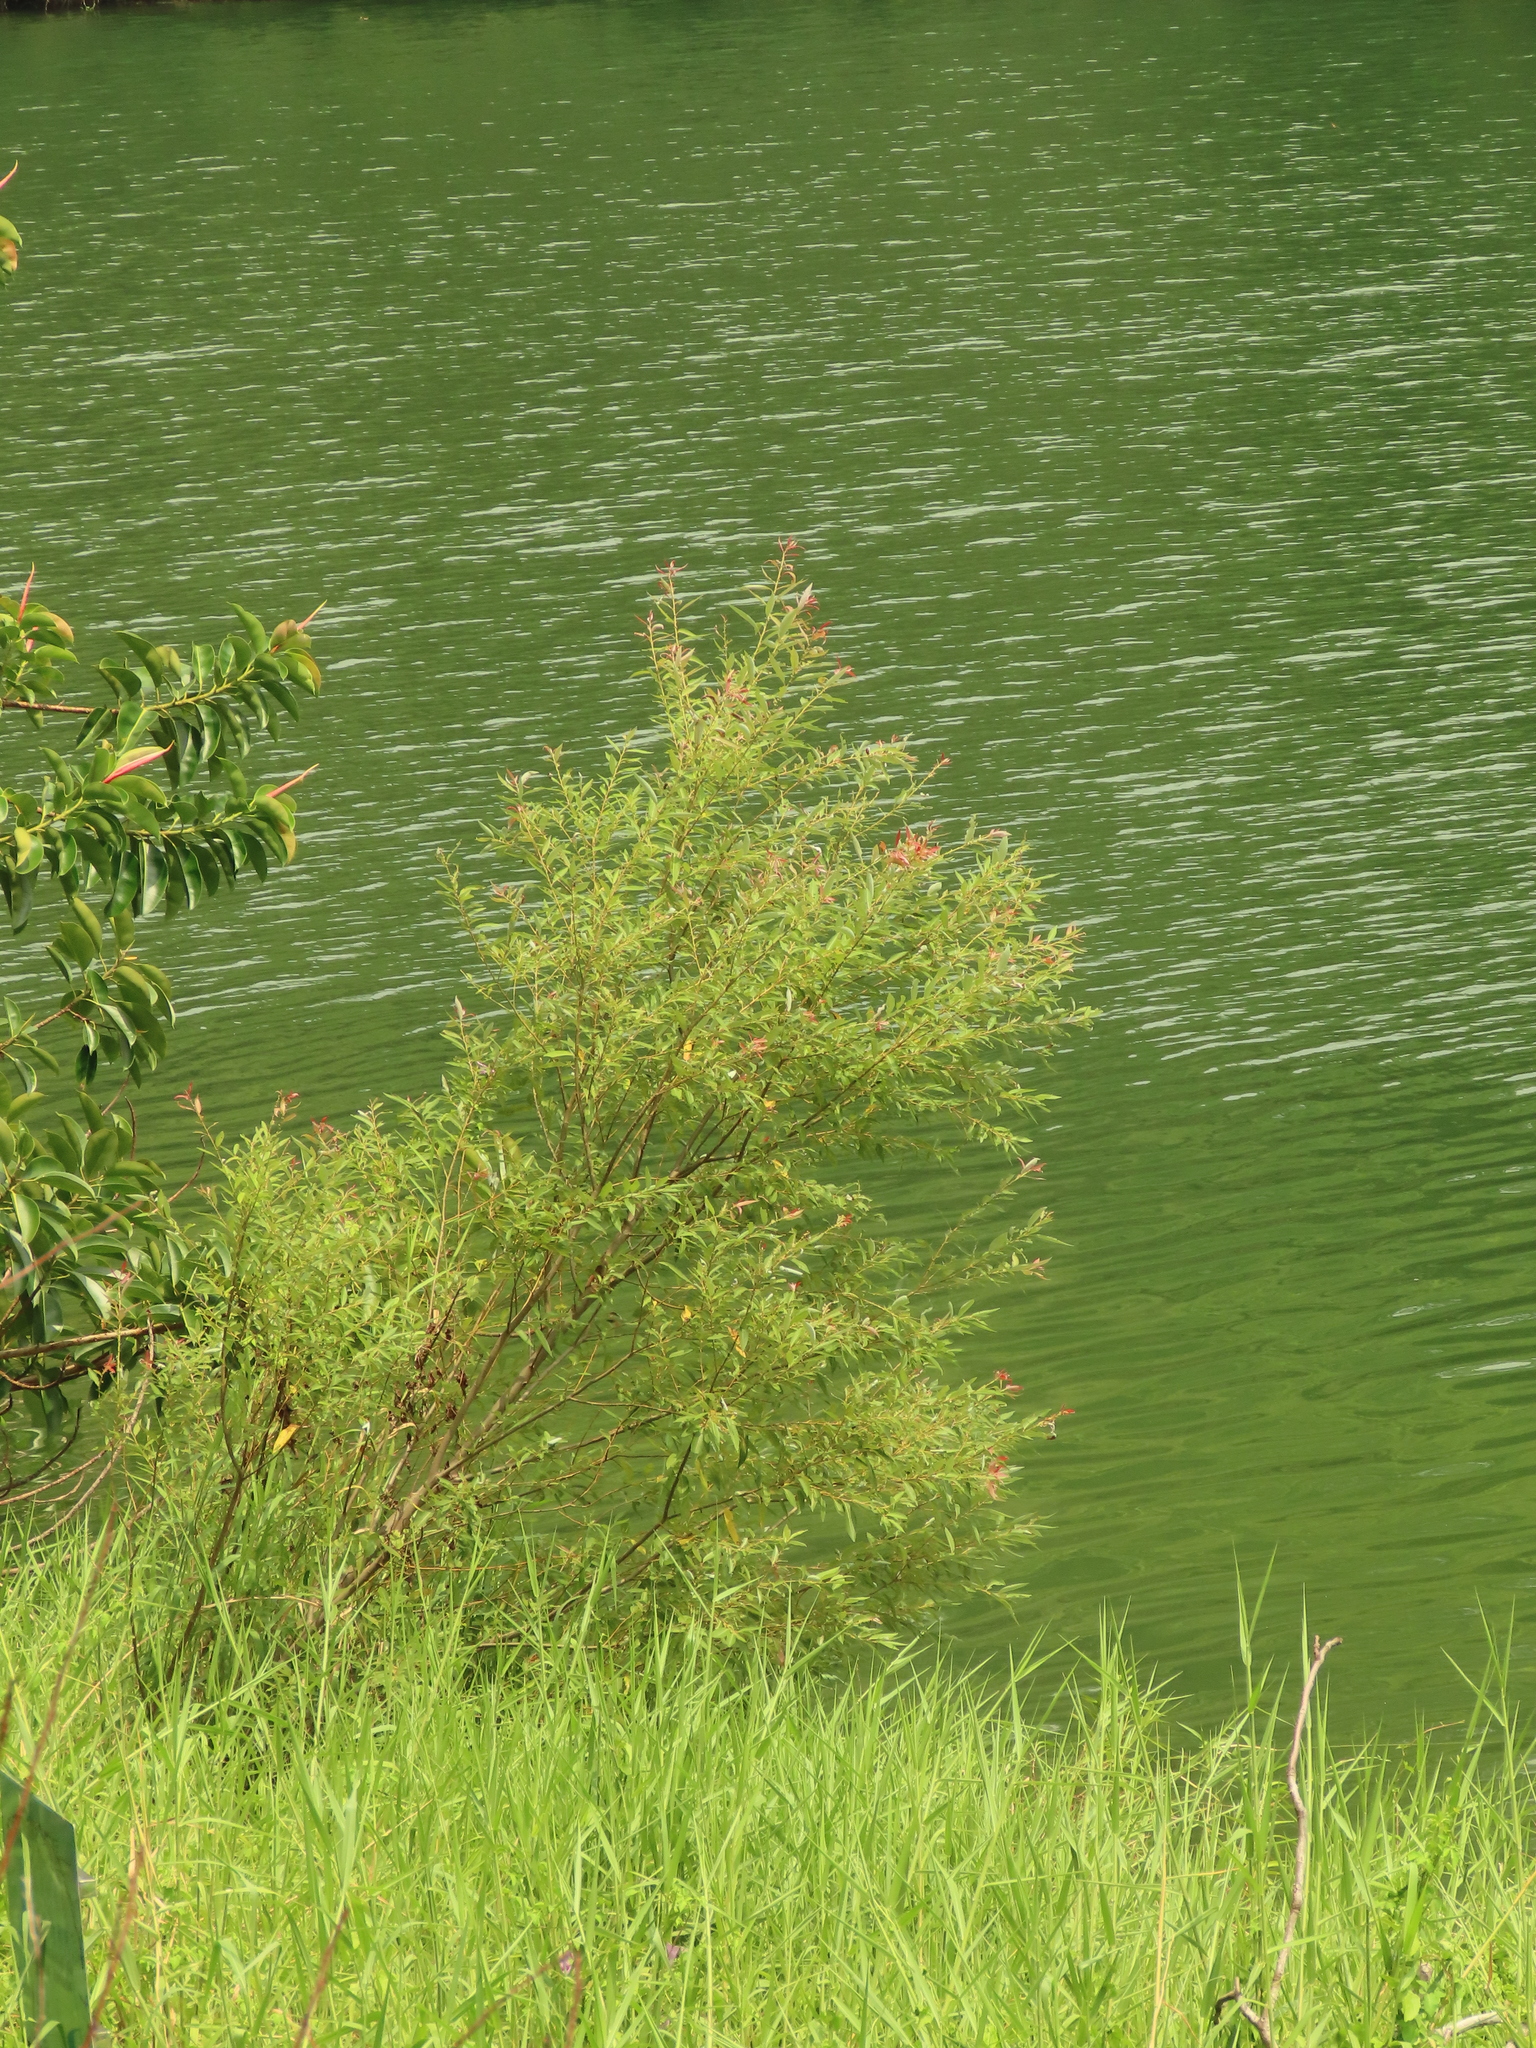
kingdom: Plantae
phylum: Tracheophyta
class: Magnoliopsida
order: Malpighiales
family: Salicaceae
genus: Salix
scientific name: Salix mesnyi
